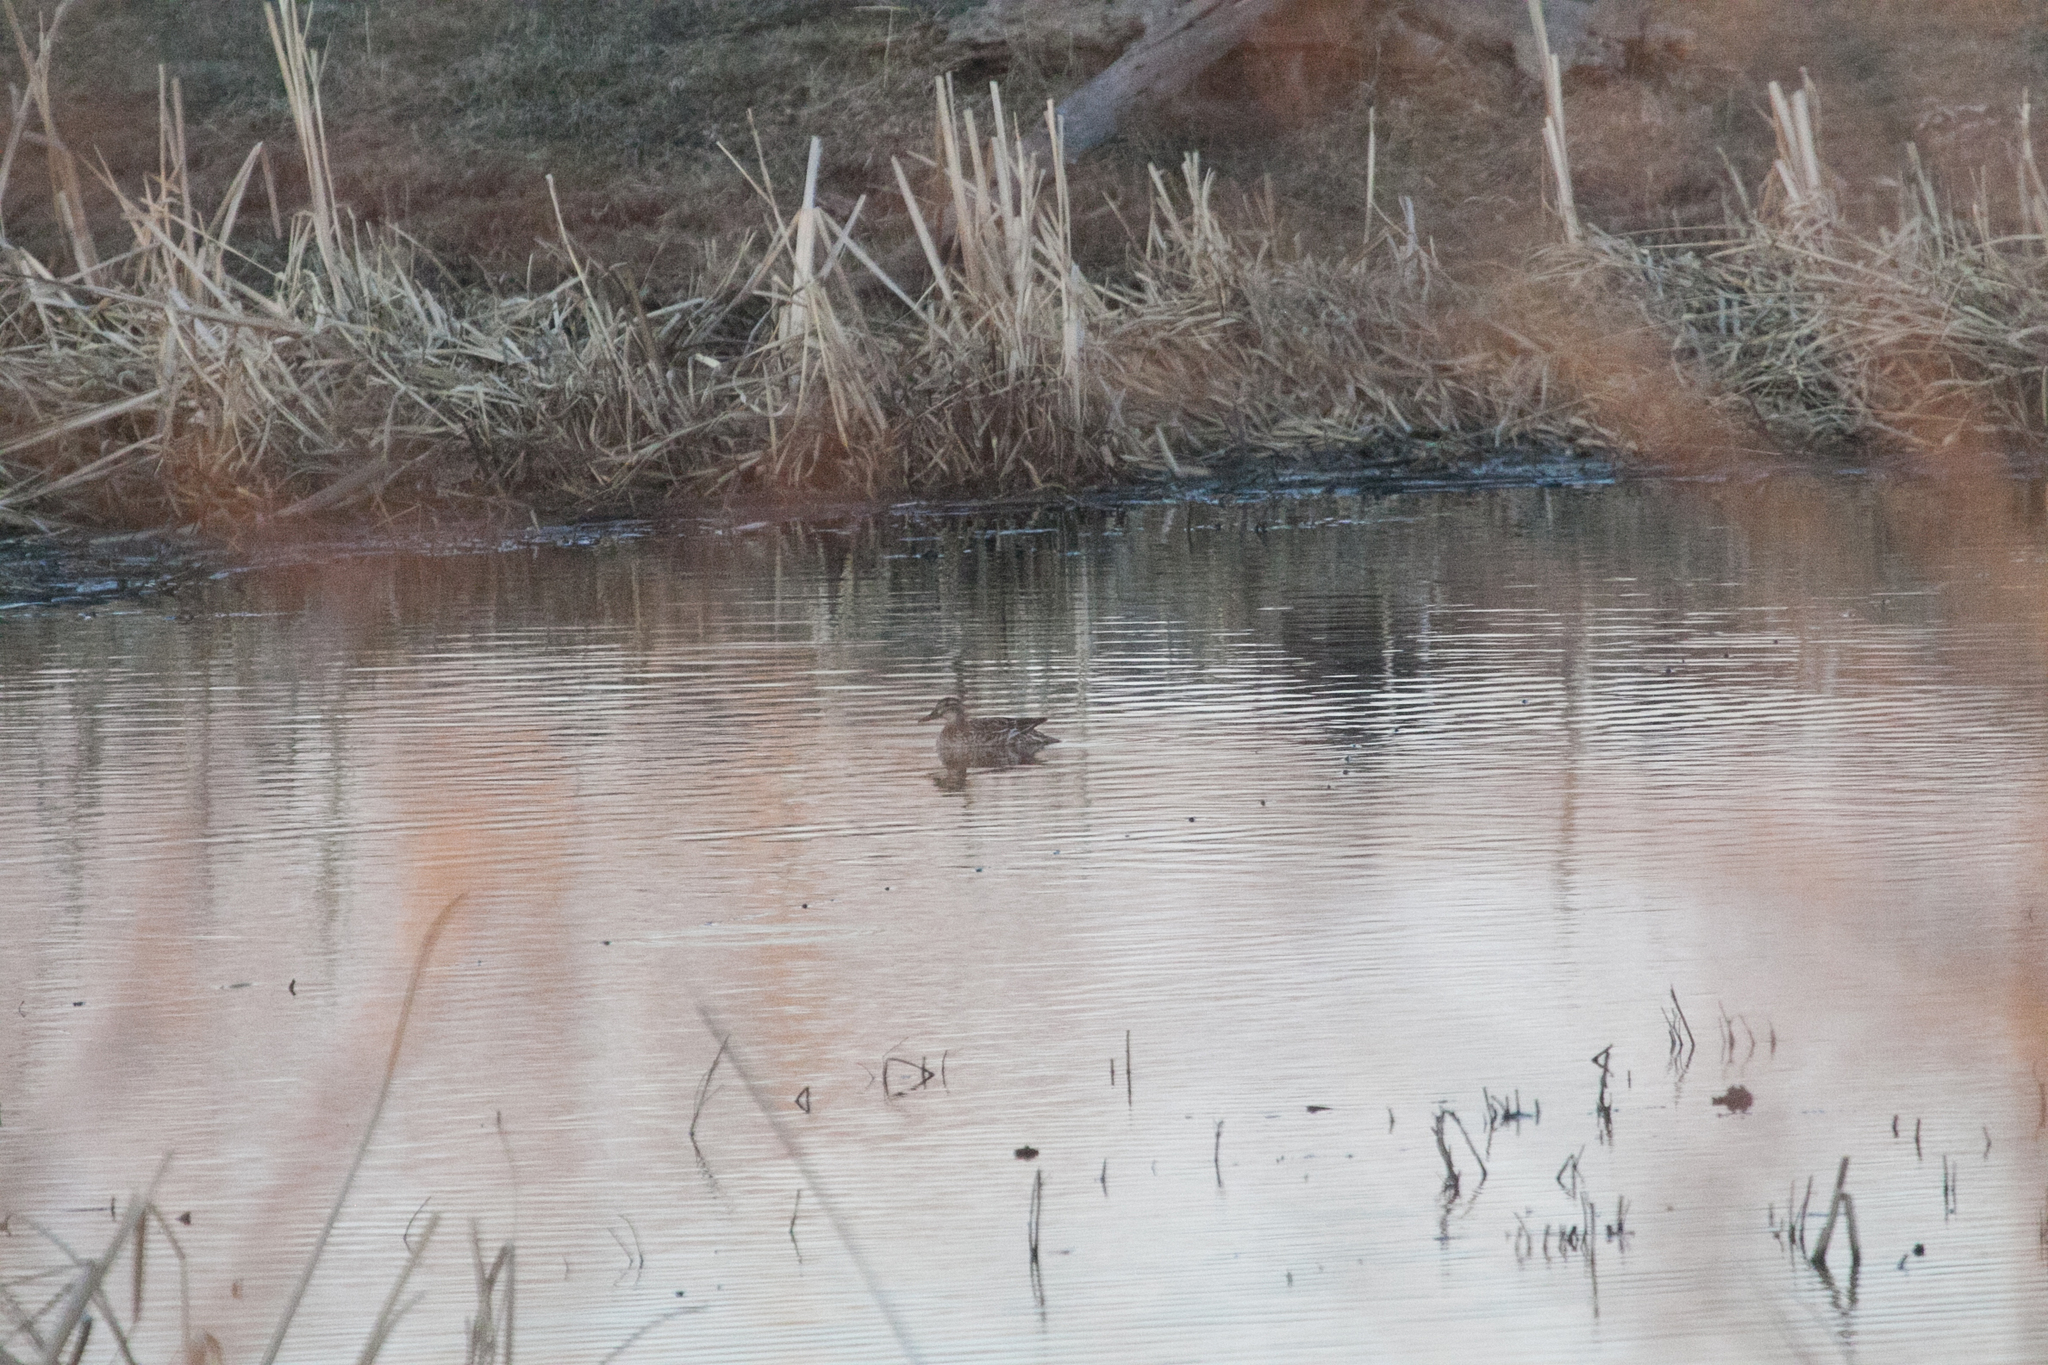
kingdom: Animalia
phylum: Chordata
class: Aves
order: Anseriformes
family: Anatidae
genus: Spatula
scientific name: Spatula querquedula
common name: Garganey
